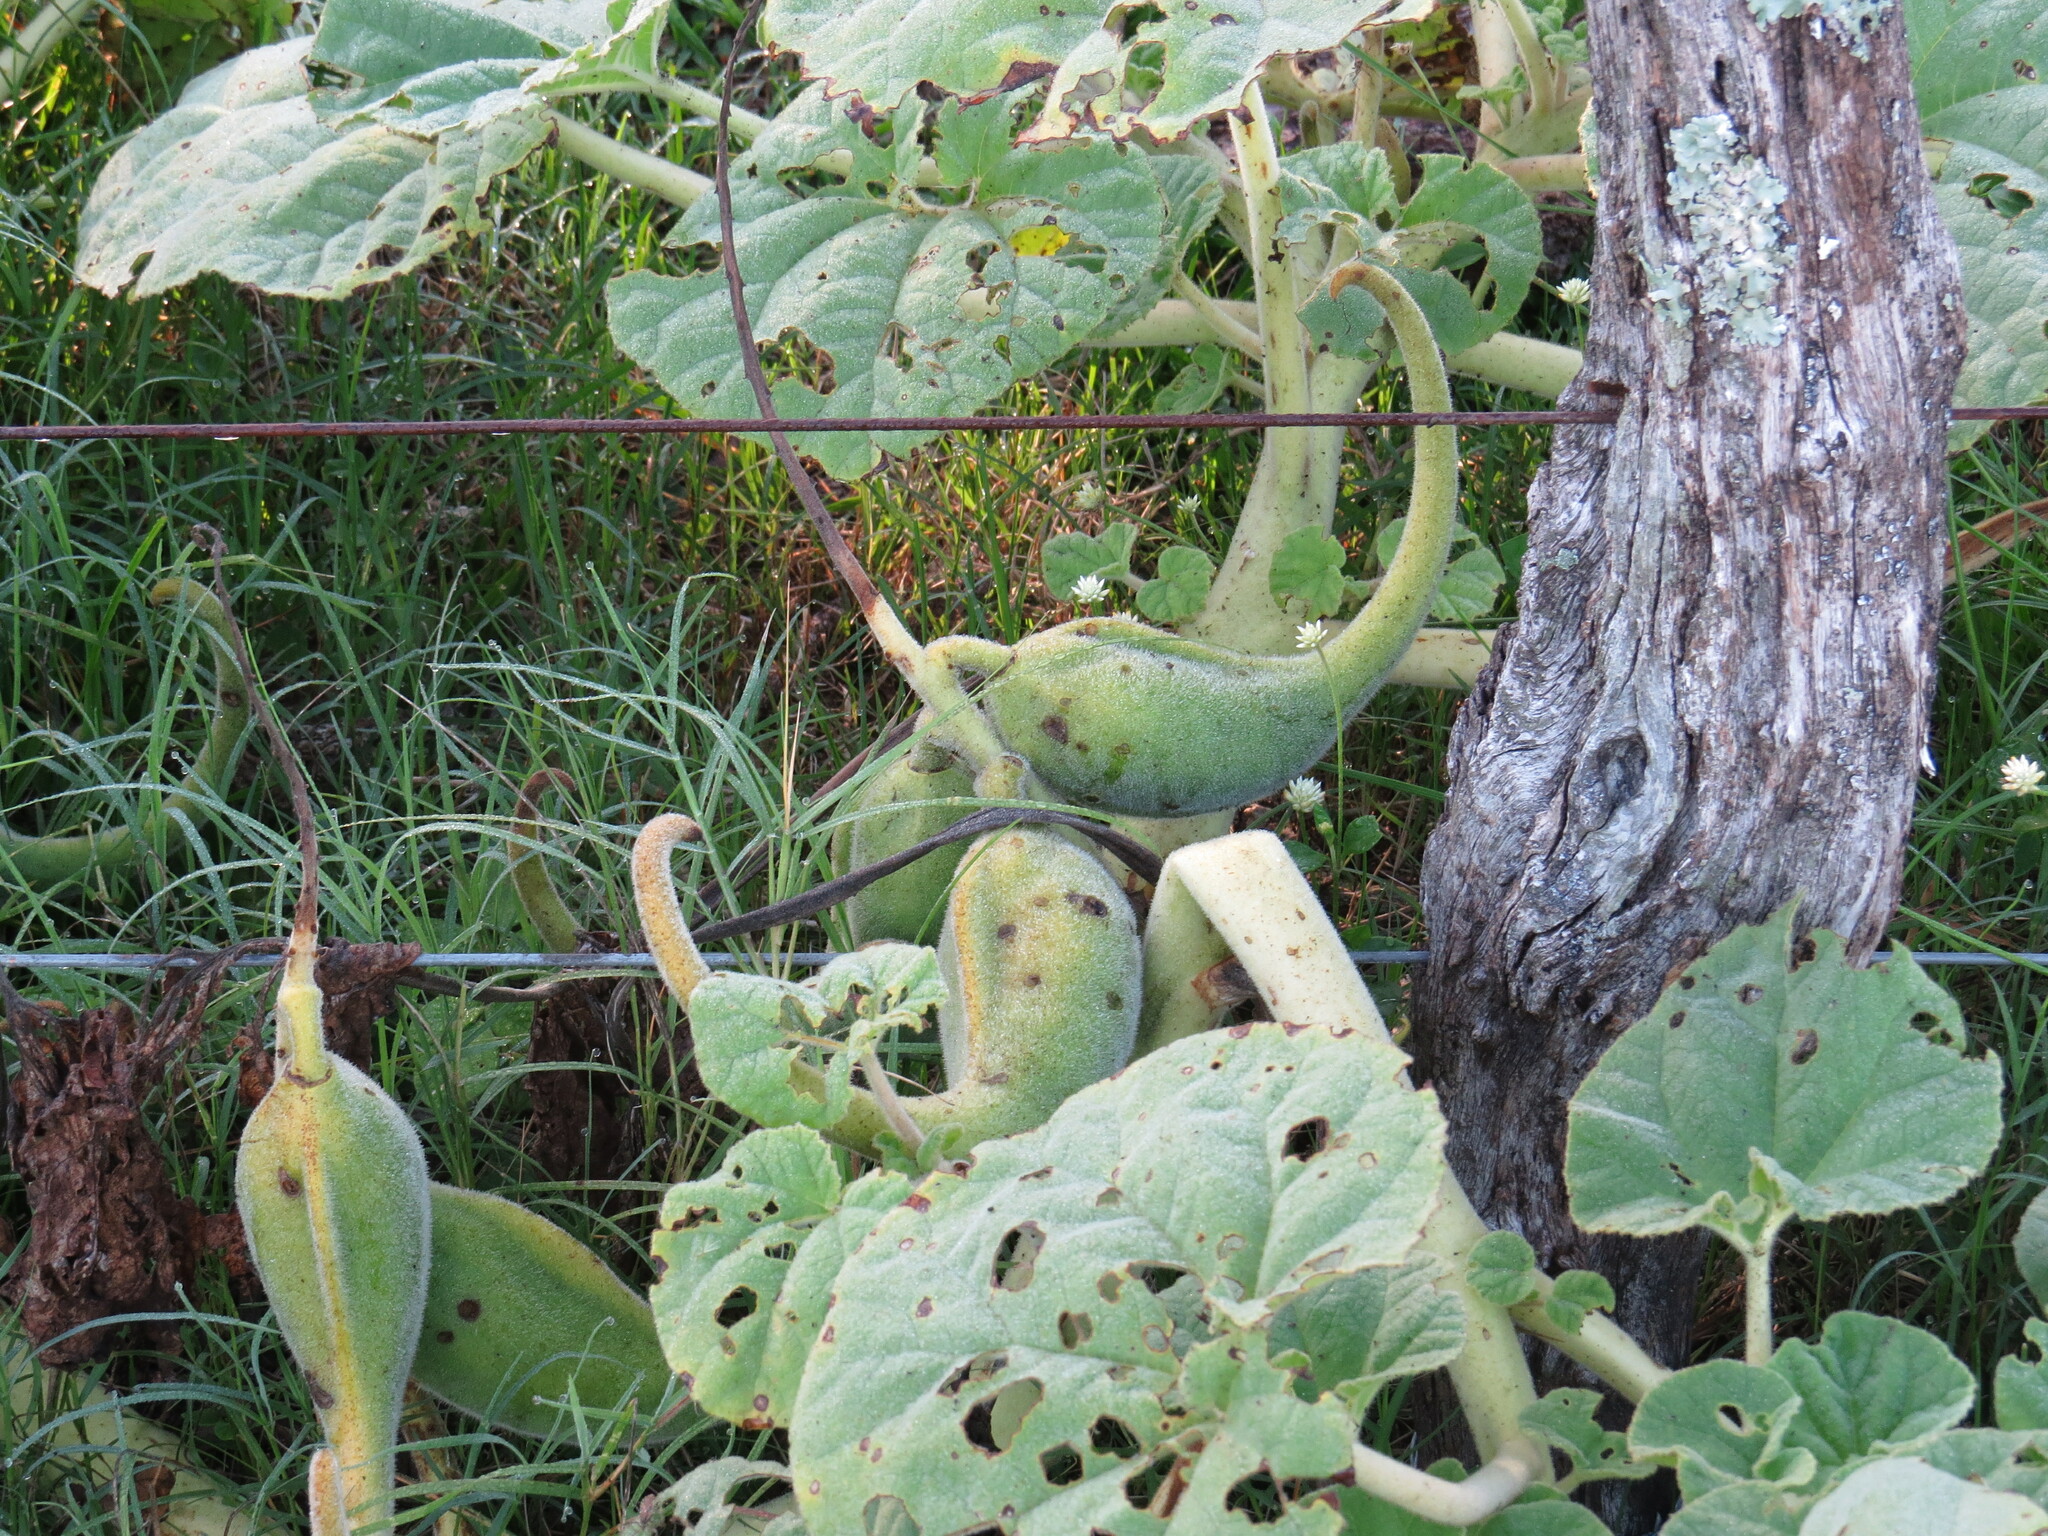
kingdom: Plantae
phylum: Tracheophyta
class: Magnoliopsida
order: Lamiales
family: Martyniaceae
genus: Ibicella
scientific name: Ibicella lutea
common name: Yellow unicorn-plant
